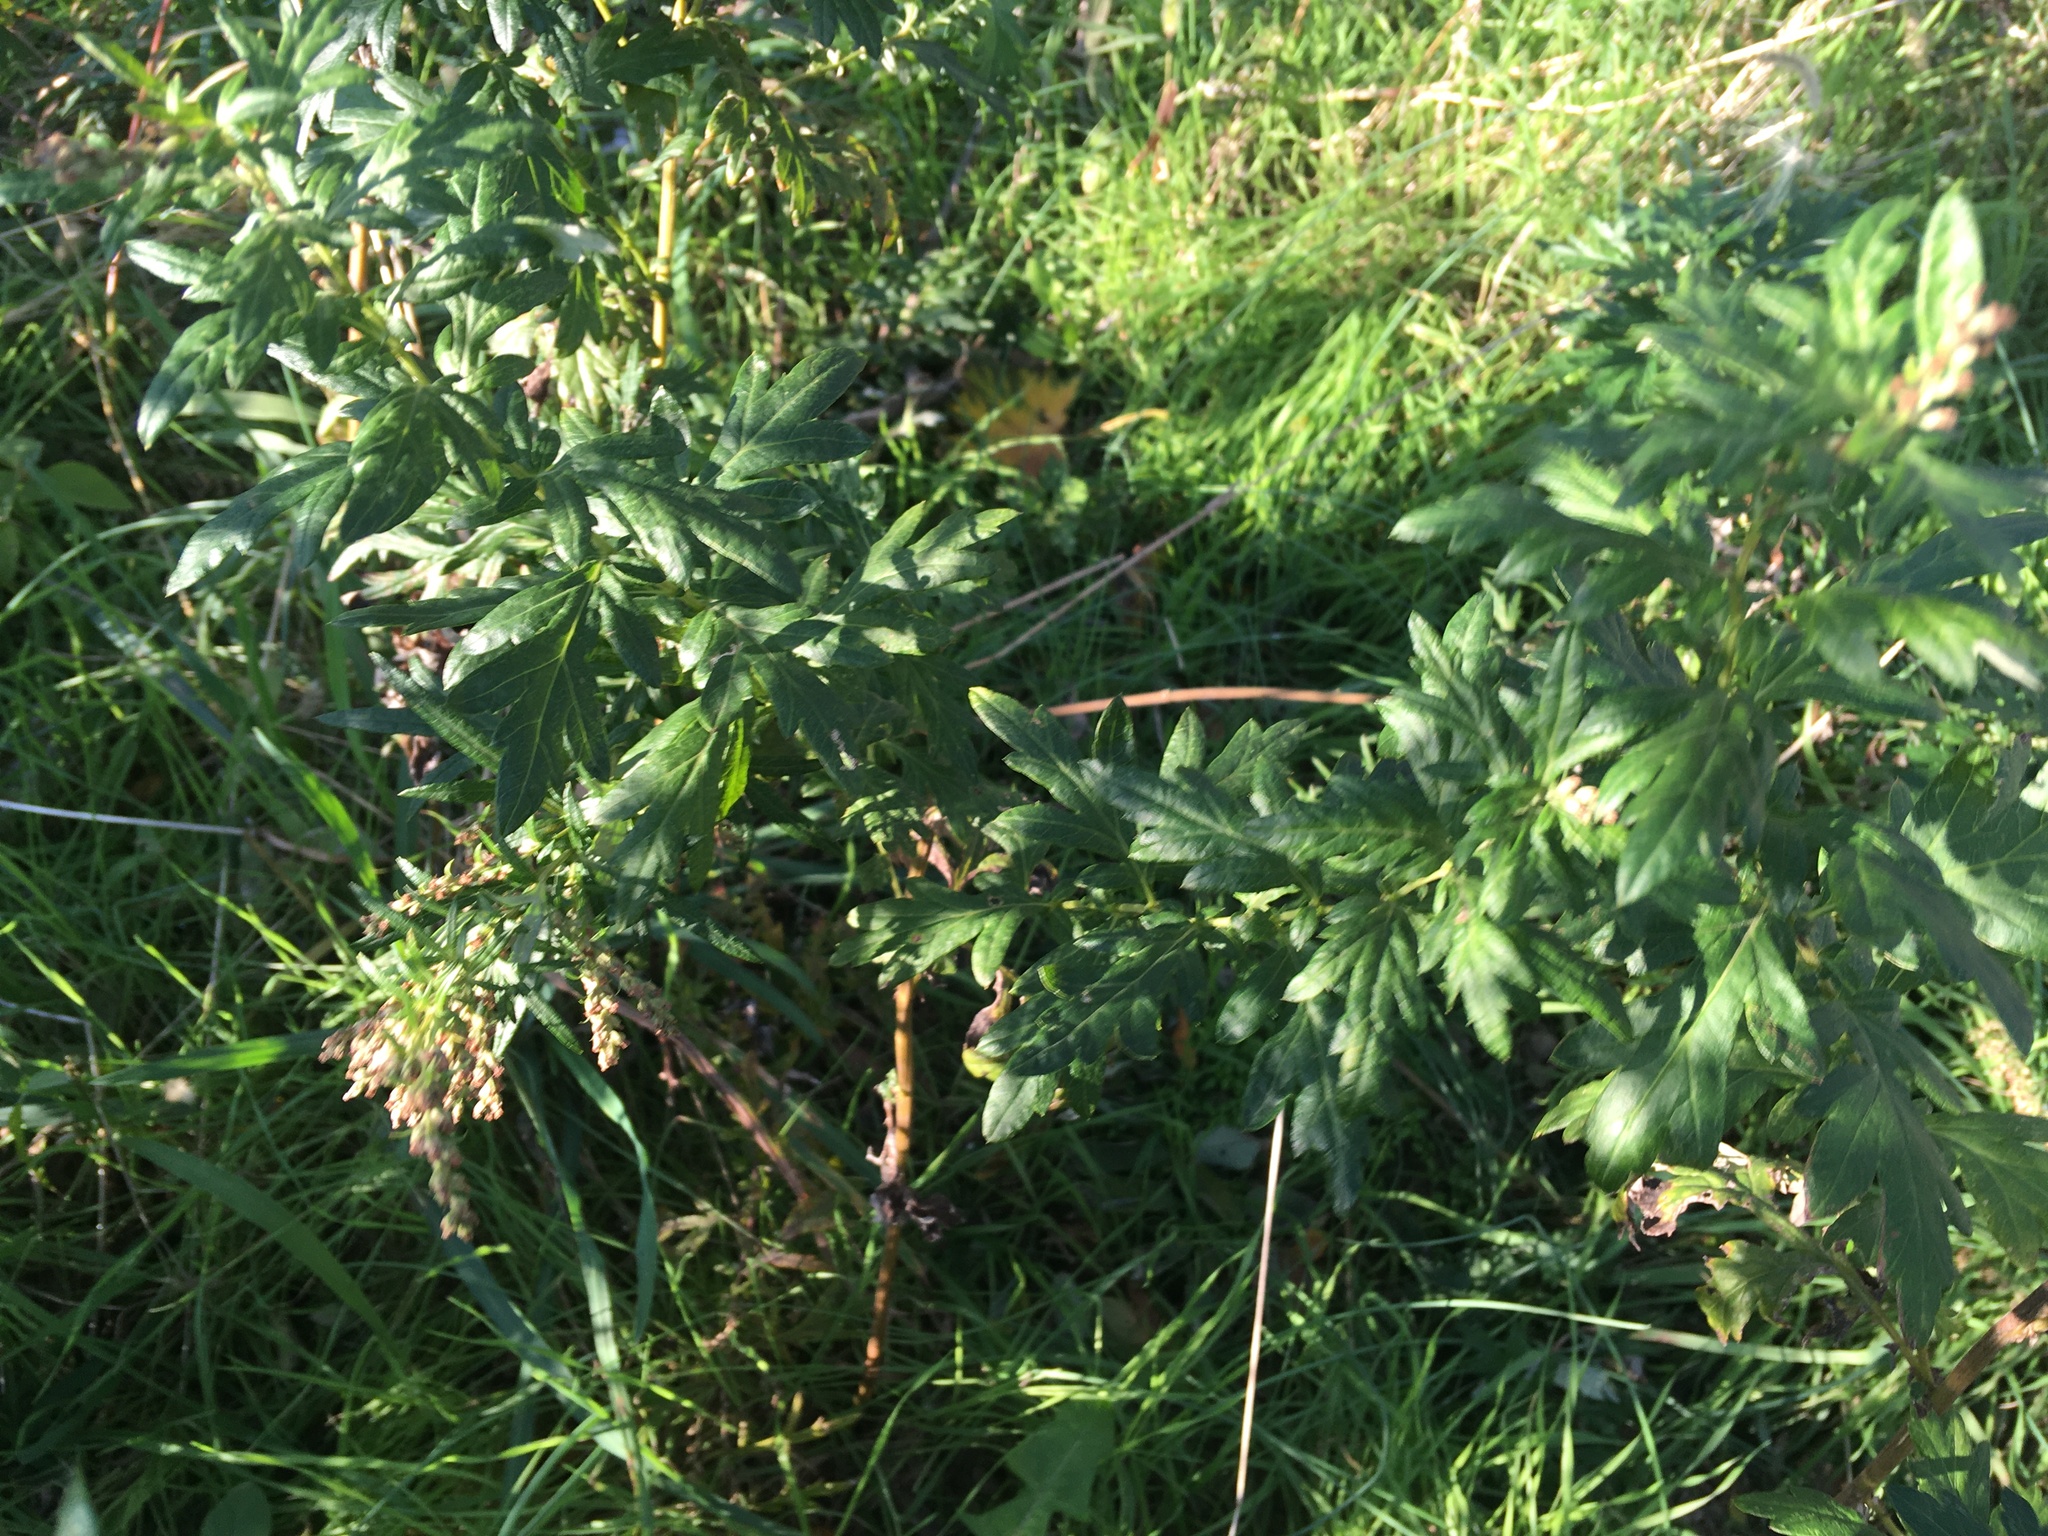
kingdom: Plantae
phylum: Tracheophyta
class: Magnoliopsida
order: Asterales
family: Asteraceae
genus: Artemisia
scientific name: Artemisia vulgaris
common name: Mugwort
